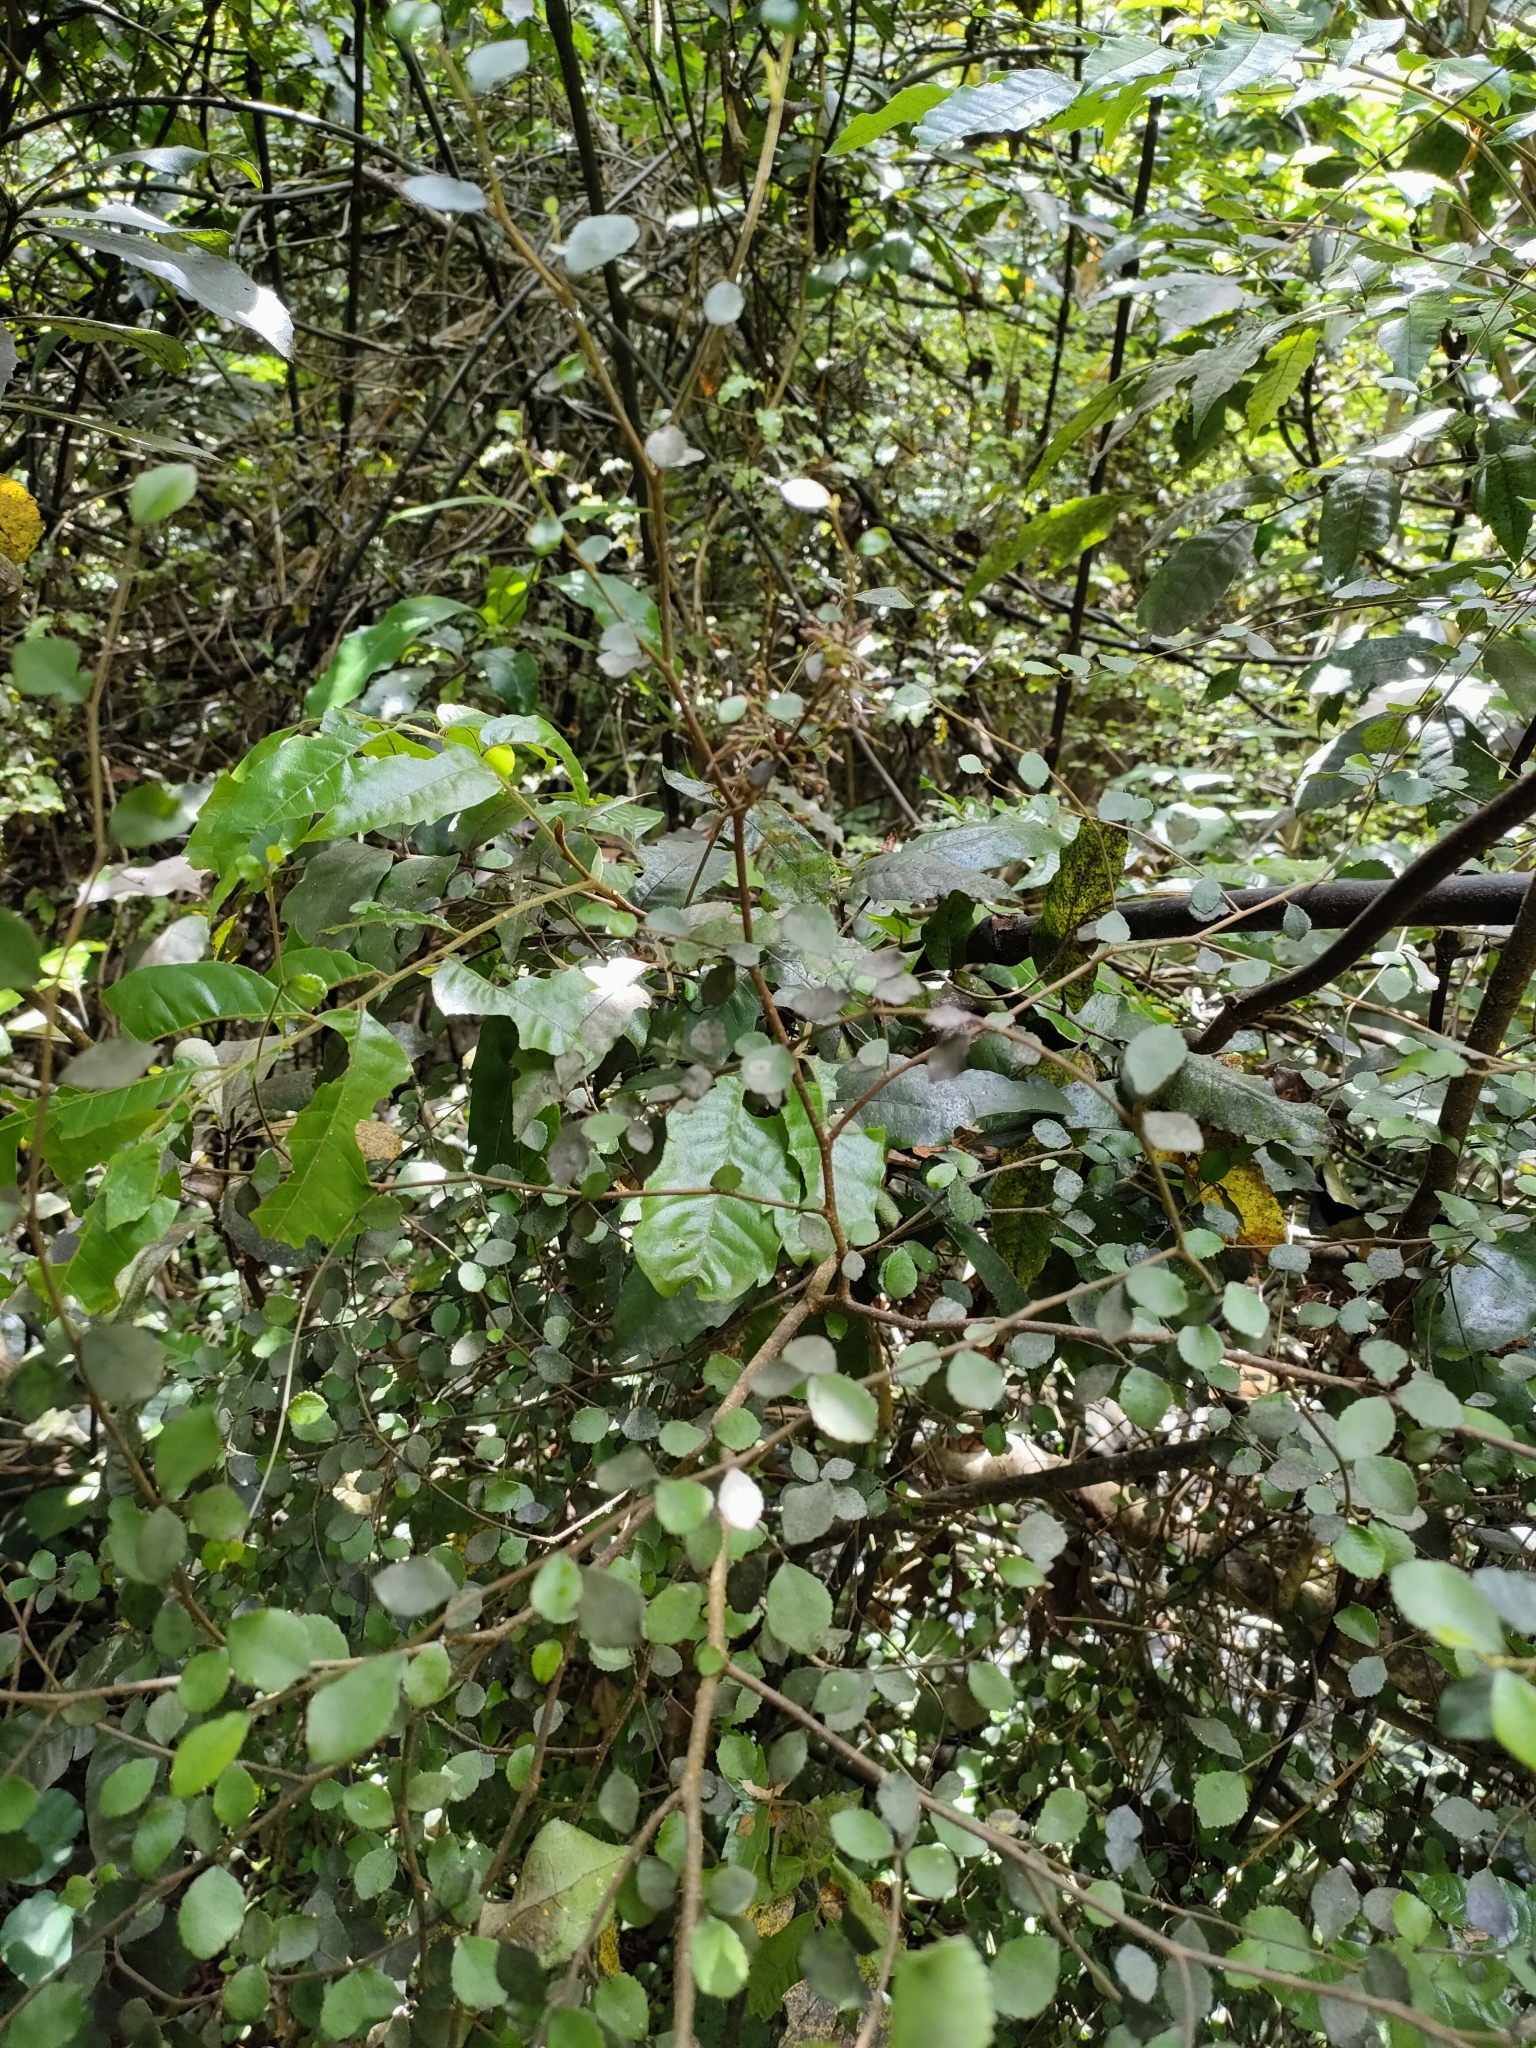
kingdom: Plantae
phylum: Tracheophyta
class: Magnoliopsida
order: Rosales
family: Moraceae
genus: Paratrophis
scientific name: Paratrophis microphylla
